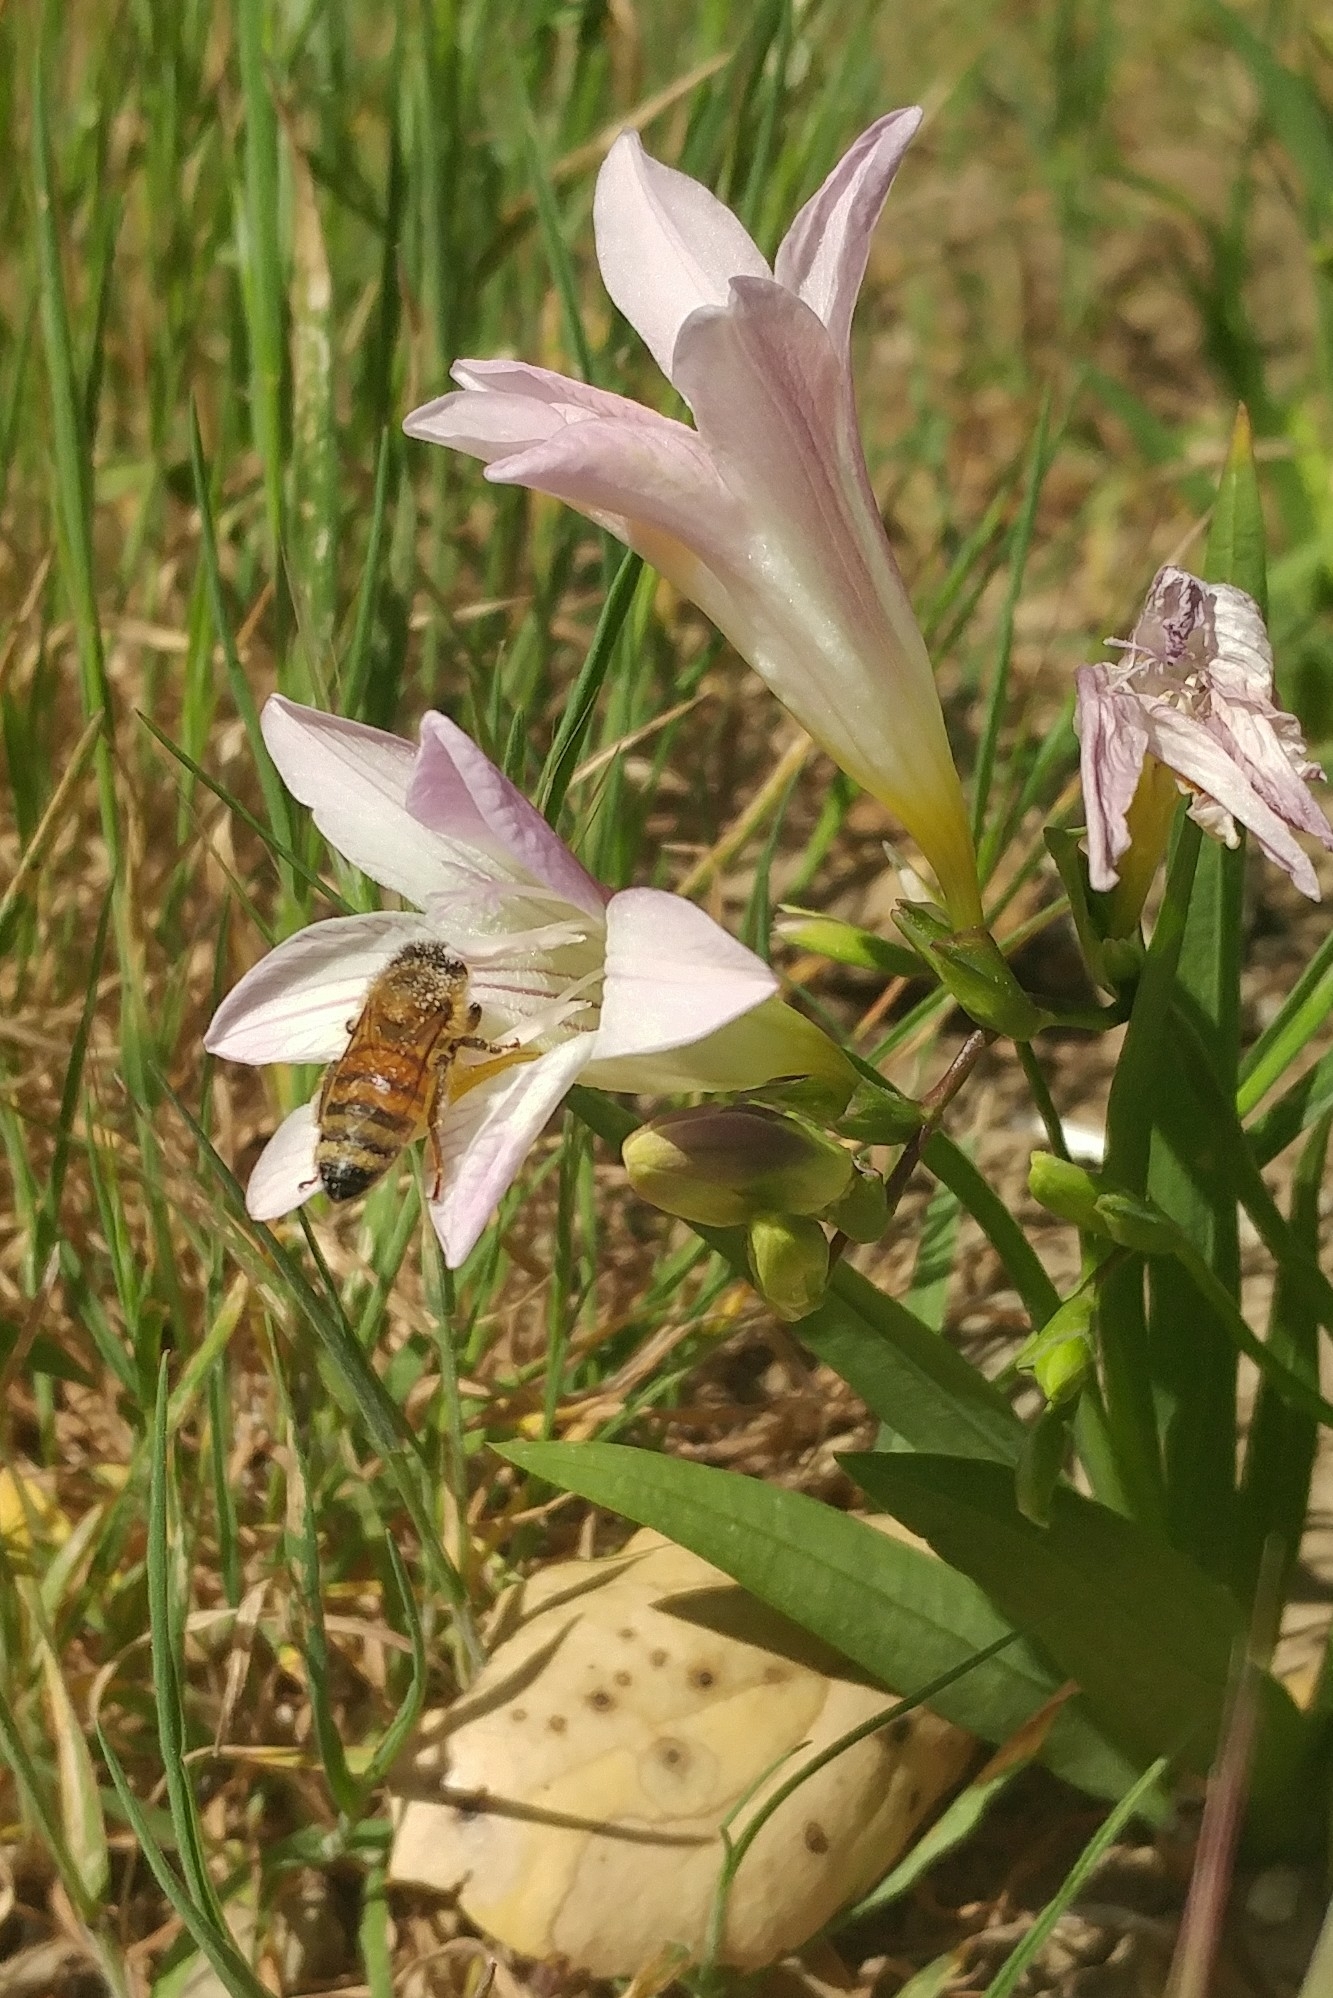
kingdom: Animalia
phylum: Arthropoda
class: Insecta
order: Hymenoptera
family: Apidae
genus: Apis
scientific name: Apis mellifera
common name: Honey bee
